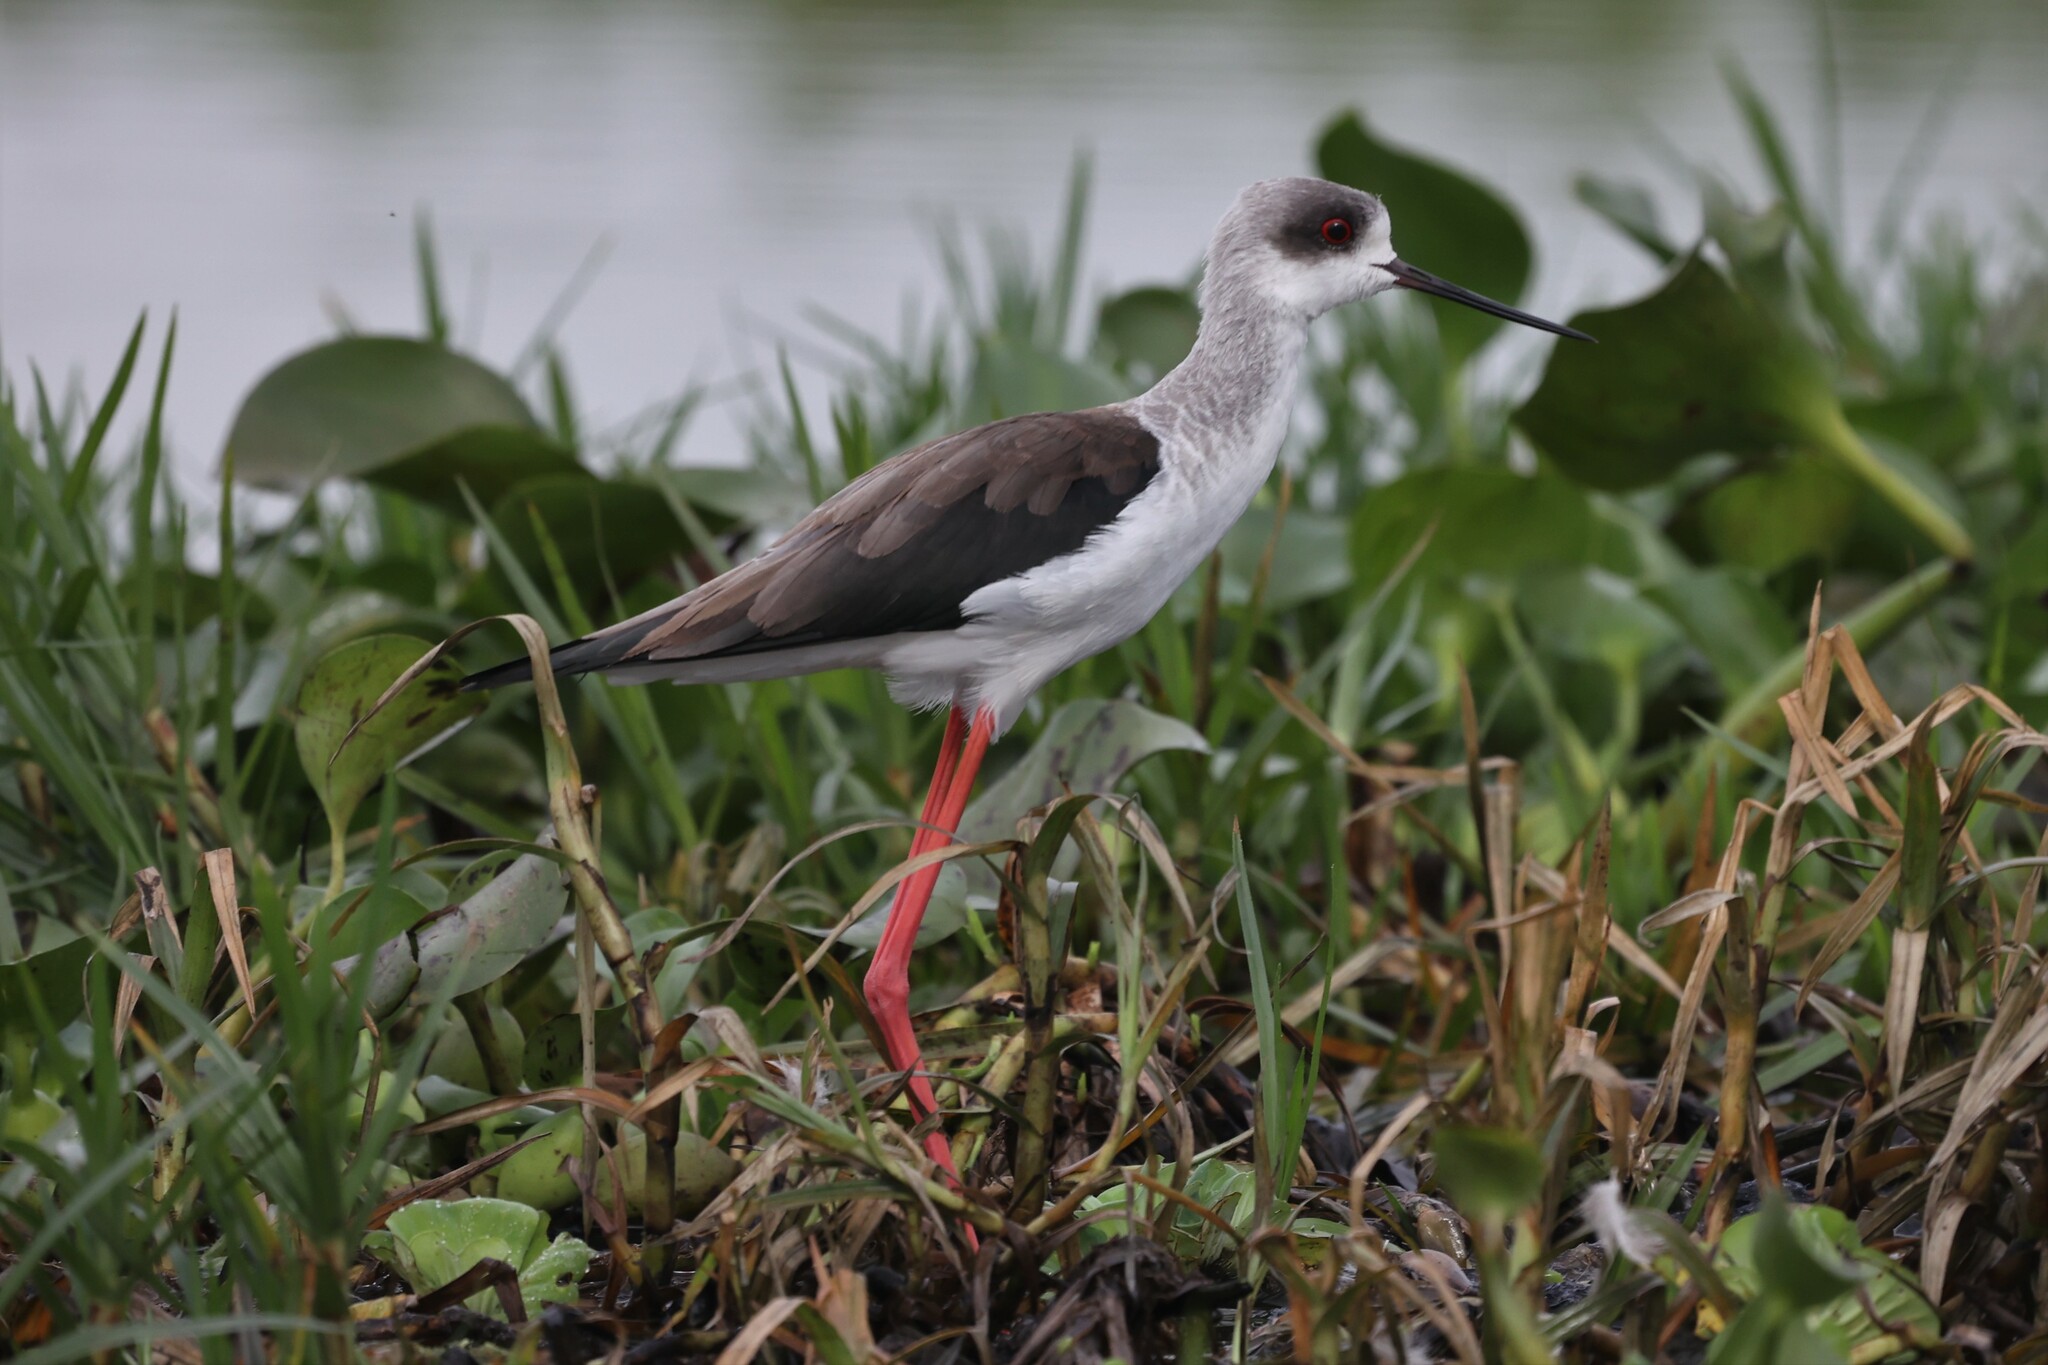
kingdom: Animalia
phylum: Chordata
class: Aves
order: Charadriiformes
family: Recurvirostridae
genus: Himantopus
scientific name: Himantopus himantopus
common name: Black-winged stilt
